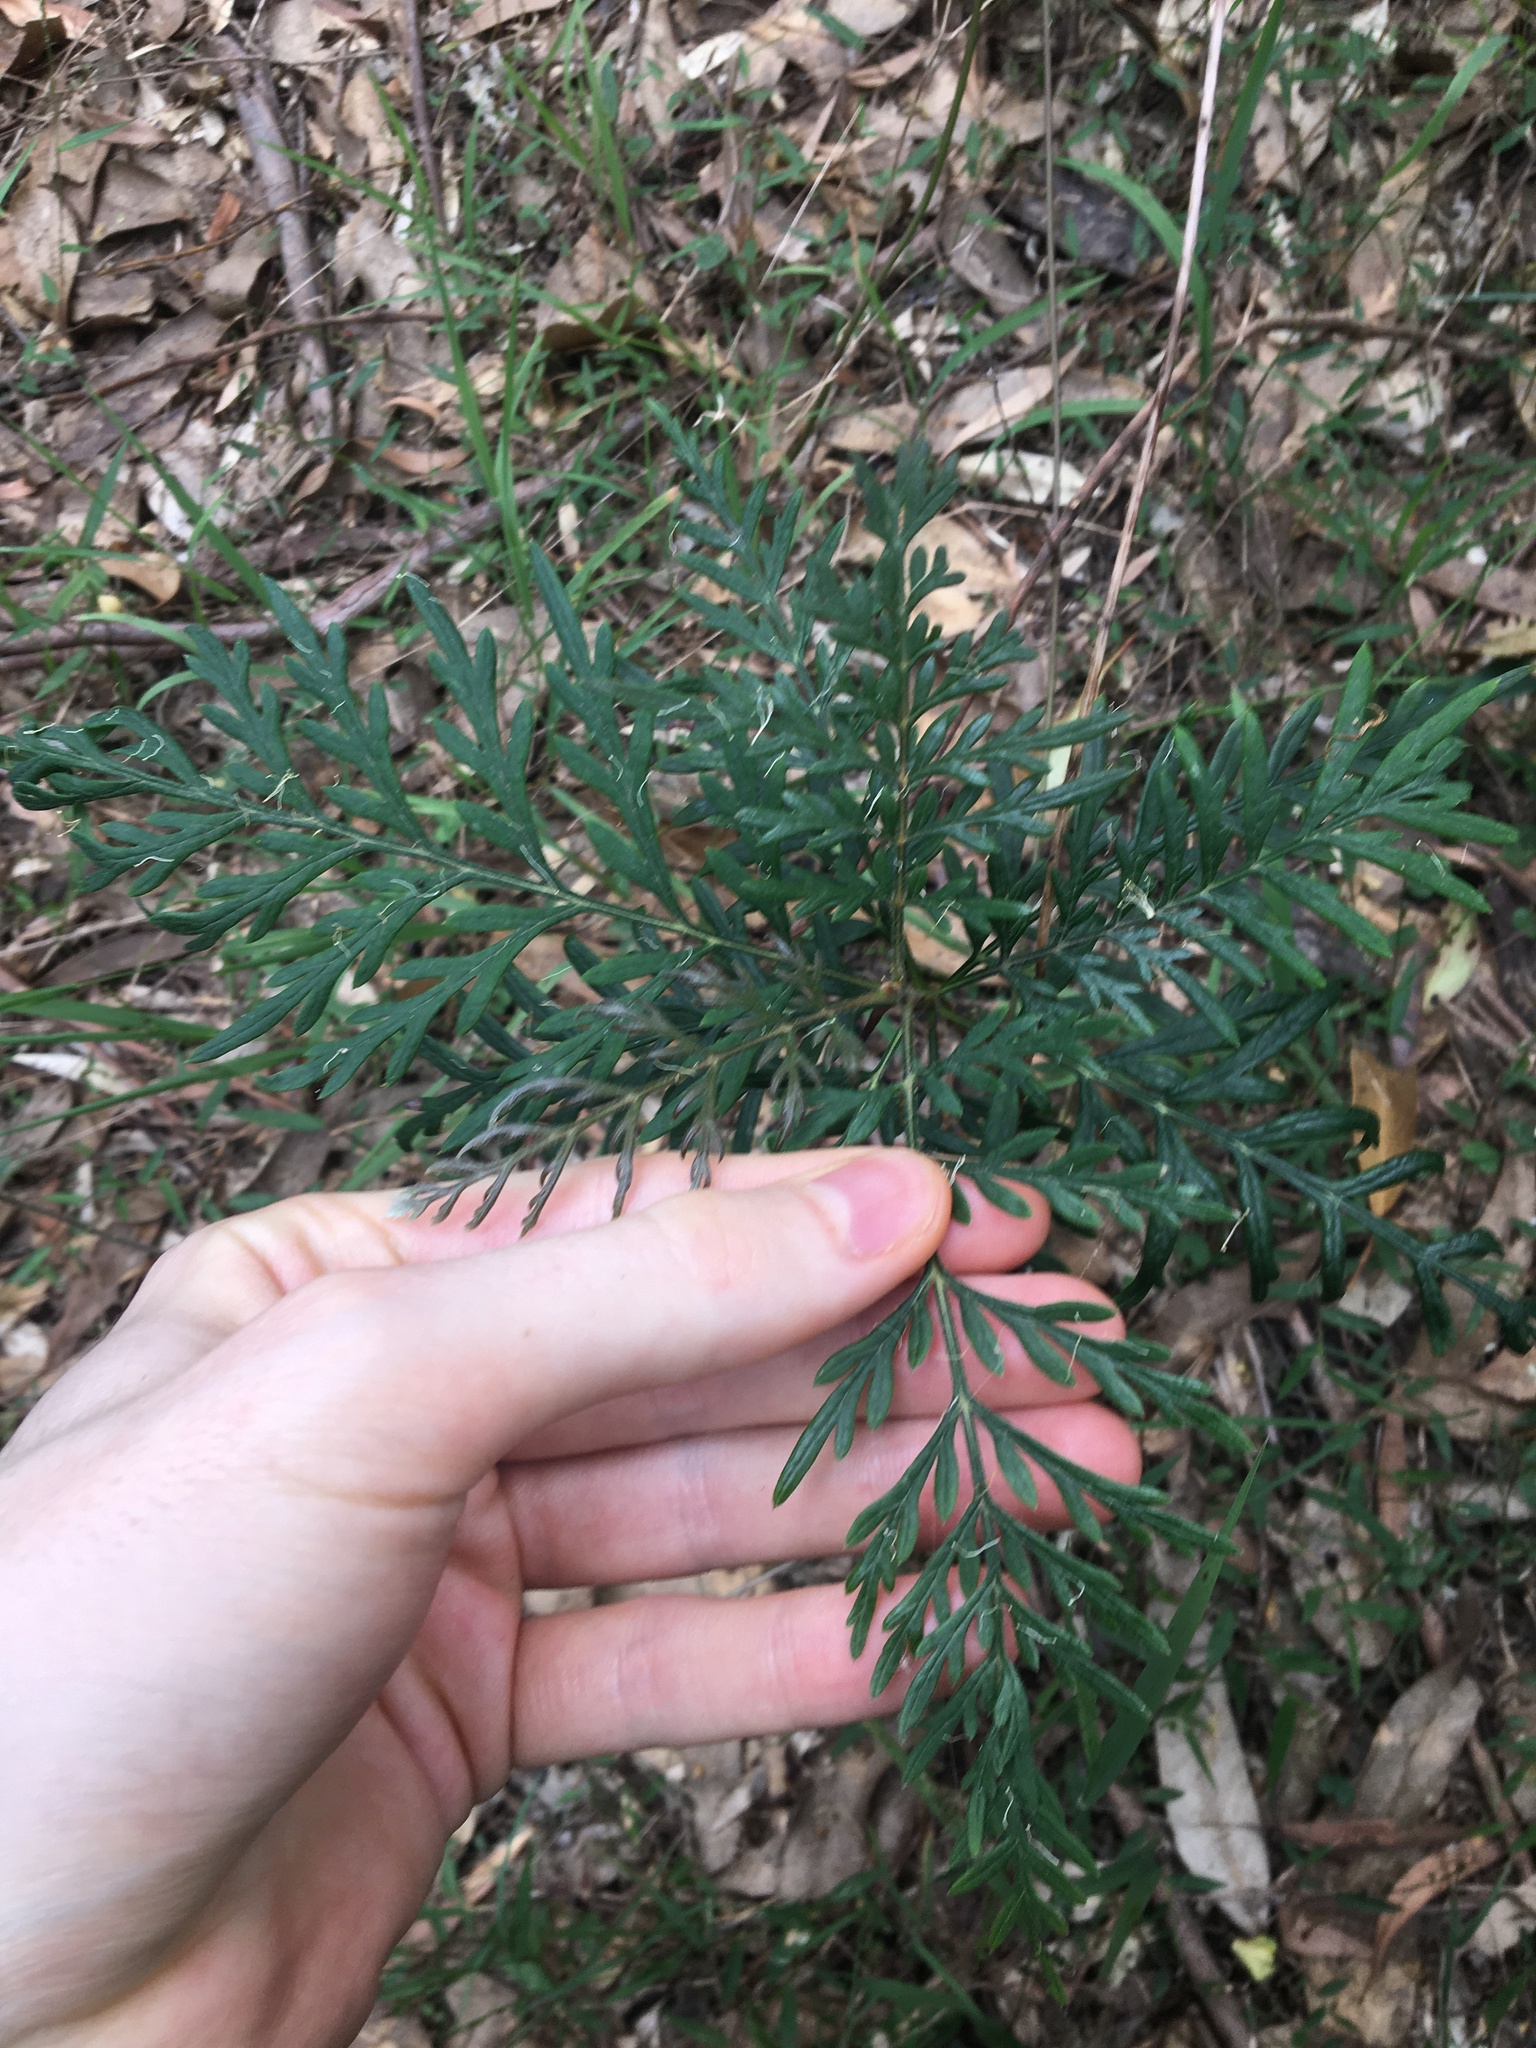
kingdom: Plantae
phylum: Tracheophyta
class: Magnoliopsida
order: Proteales
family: Proteaceae
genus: Grevillea
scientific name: Grevillea robusta
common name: Silkoak
